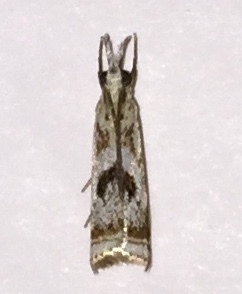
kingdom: Animalia
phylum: Arthropoda
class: Insecta
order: Lepidoptera
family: Crambidae
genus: Microcrambus
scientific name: Microcrambus elegans
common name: Elegant grass-veneer
